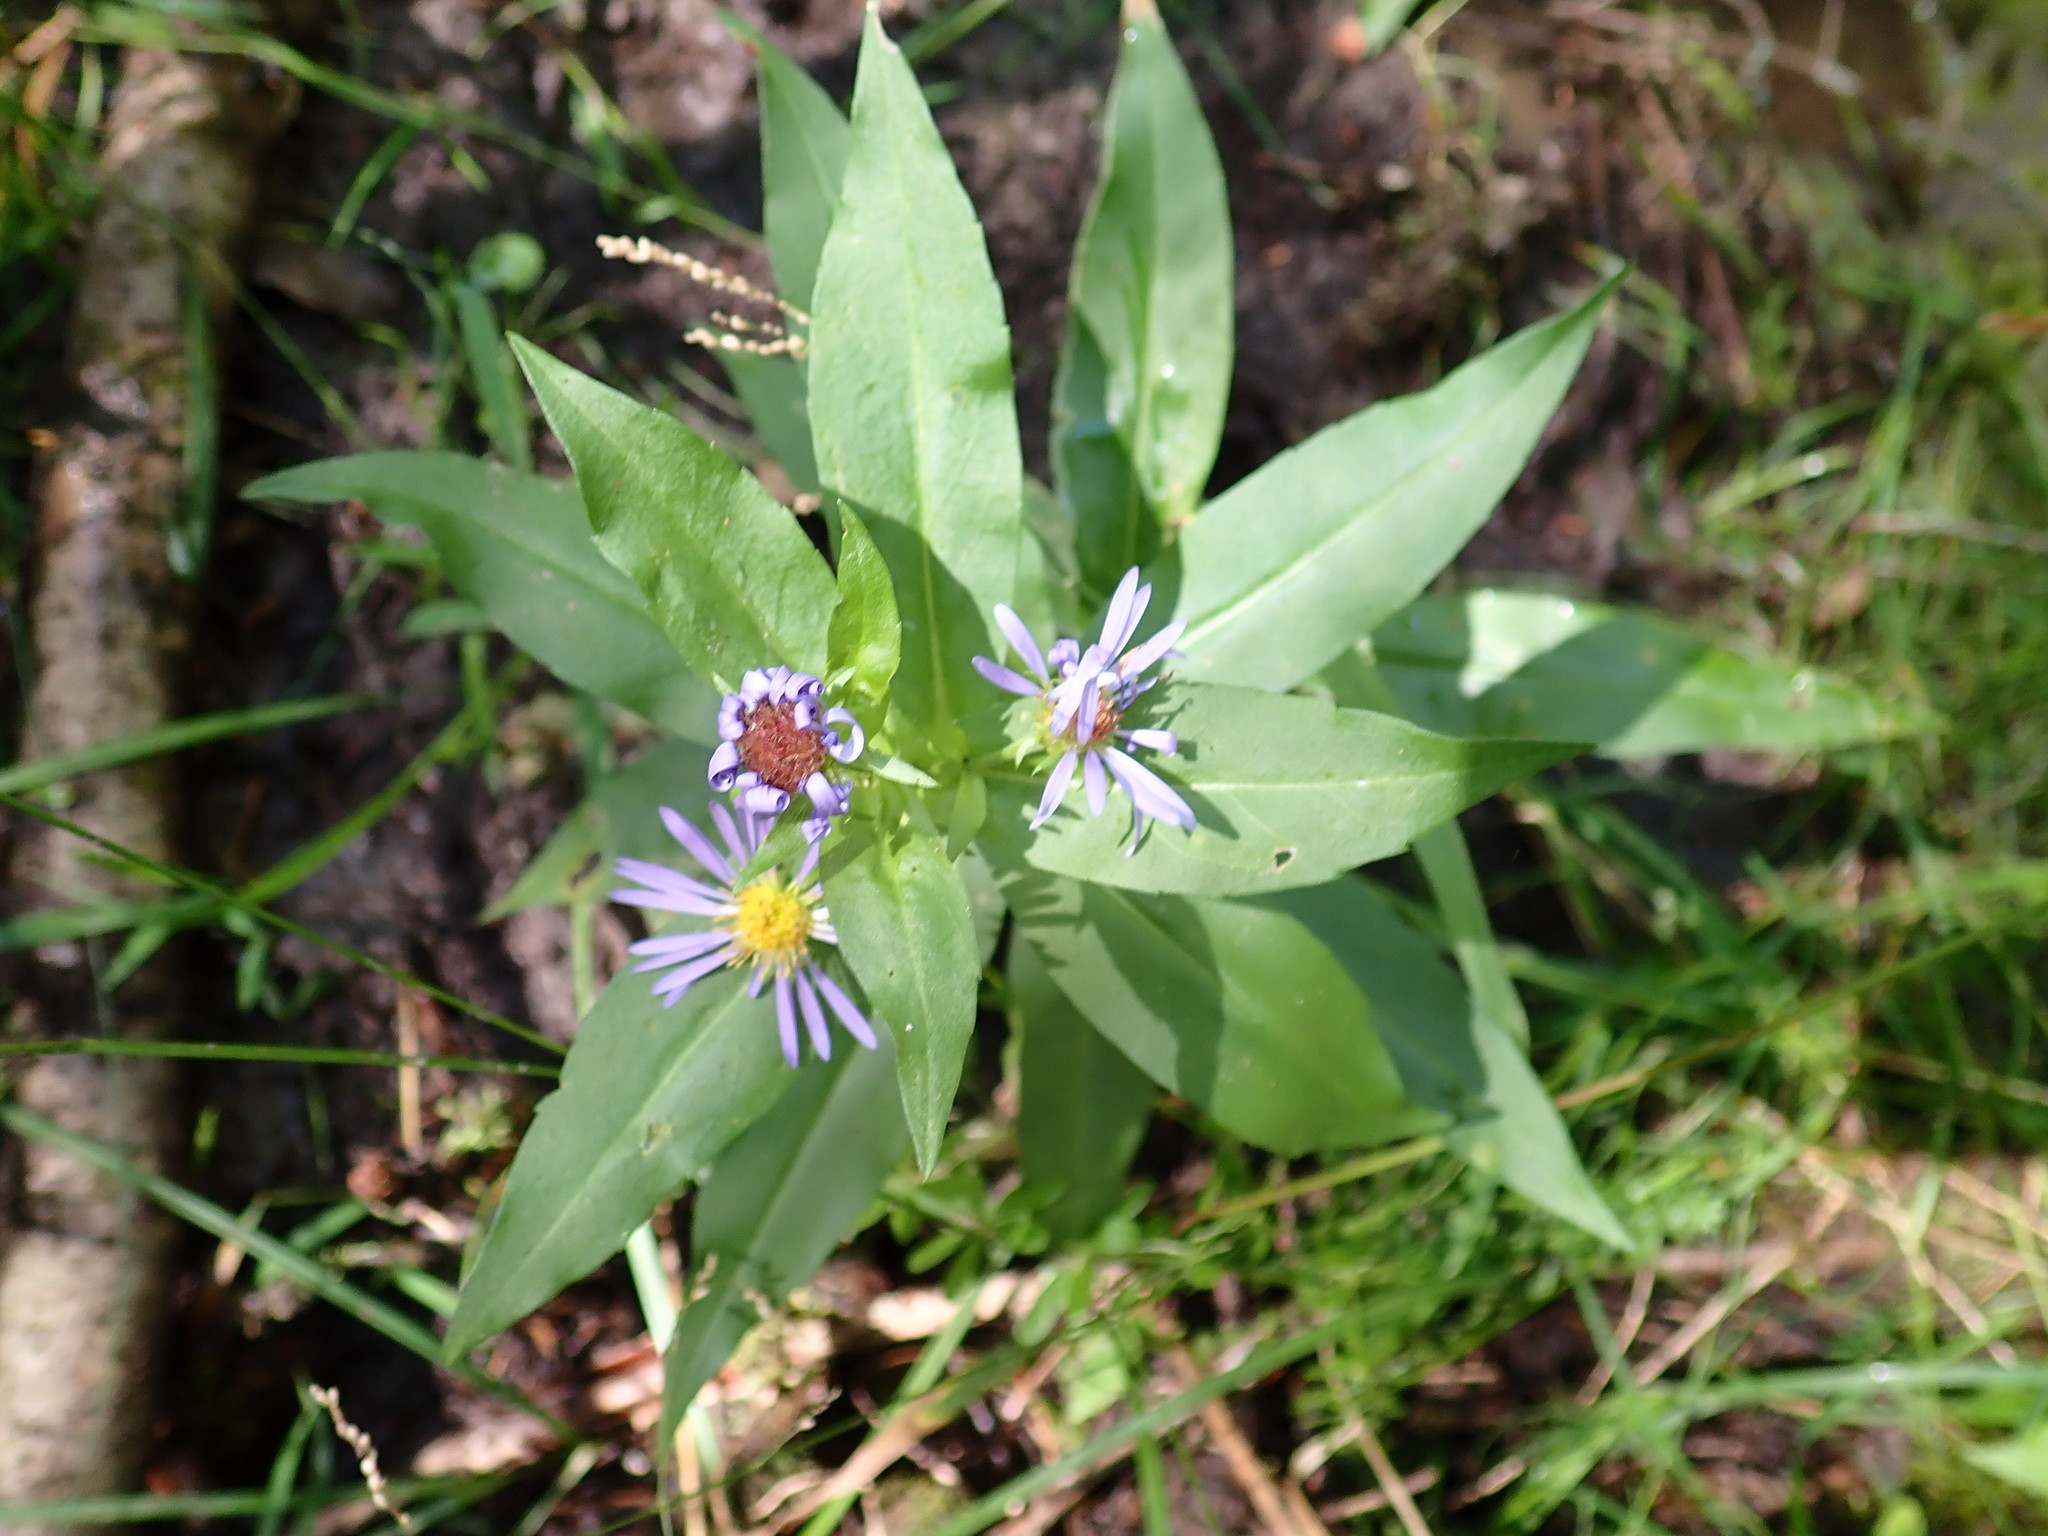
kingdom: Plantae
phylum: Tracheophyta
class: Magnoliopsida
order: Asterales
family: Asteraceae
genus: Symphyotrichum
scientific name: Symphyotrichum puniceum
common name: Bog aster
